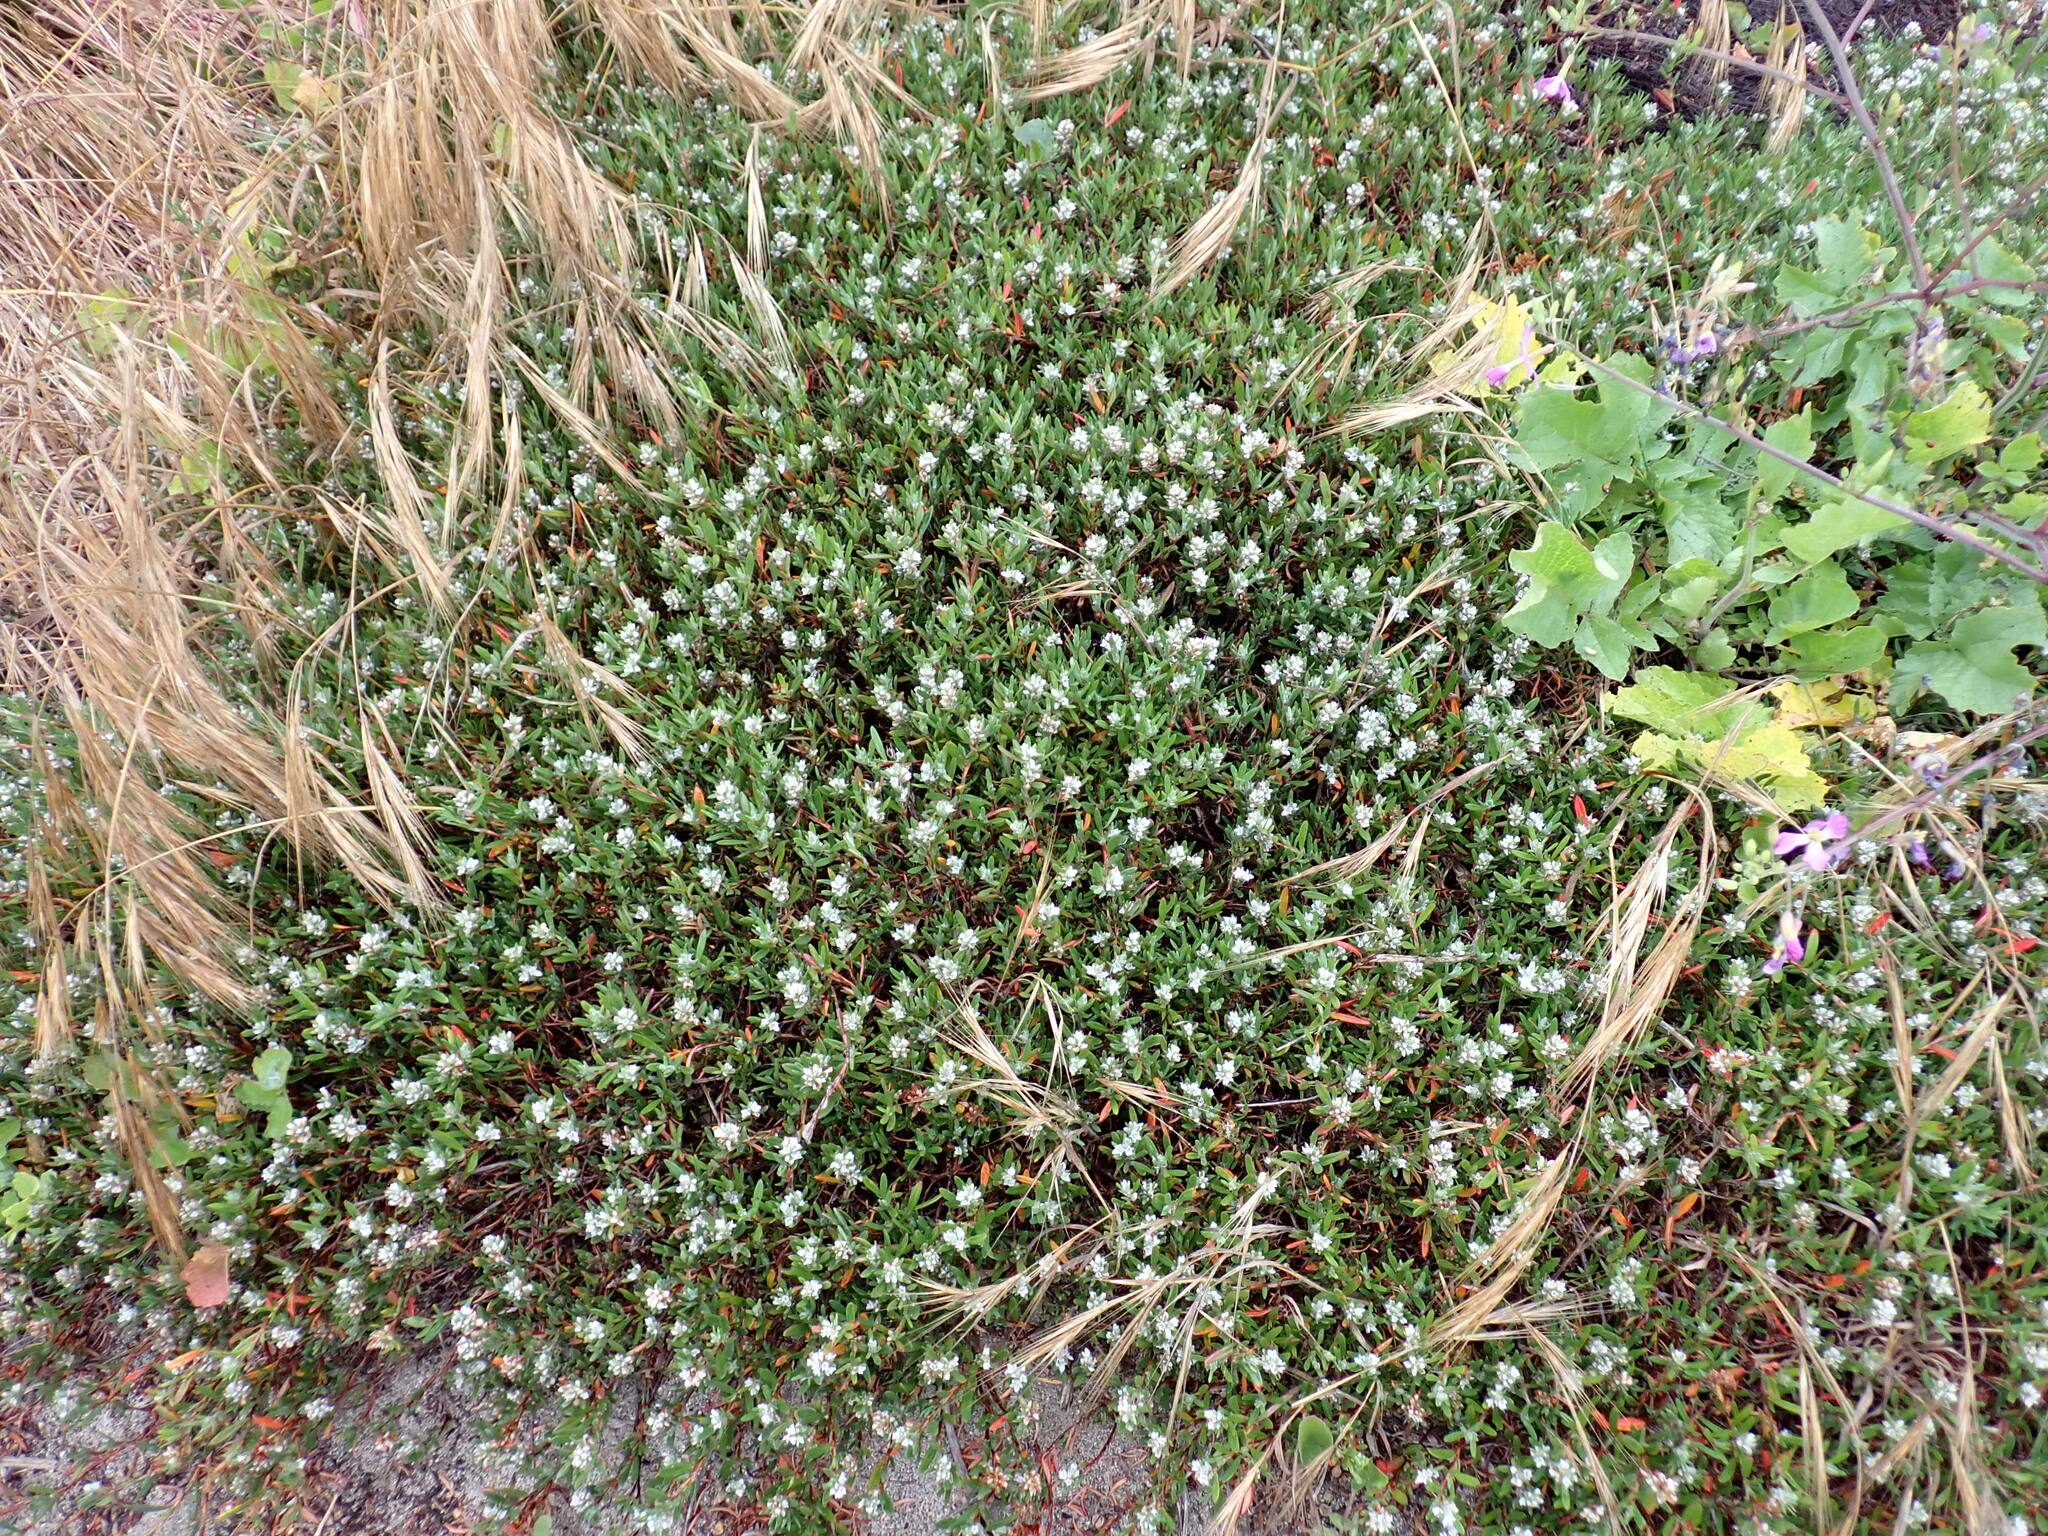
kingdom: Plantae
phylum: Tracheophyta
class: Magnoliopsida
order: Caryophyllales
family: Polygonaceae
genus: Polygonum
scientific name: Polygonum paronychia
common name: Dune knotweed
